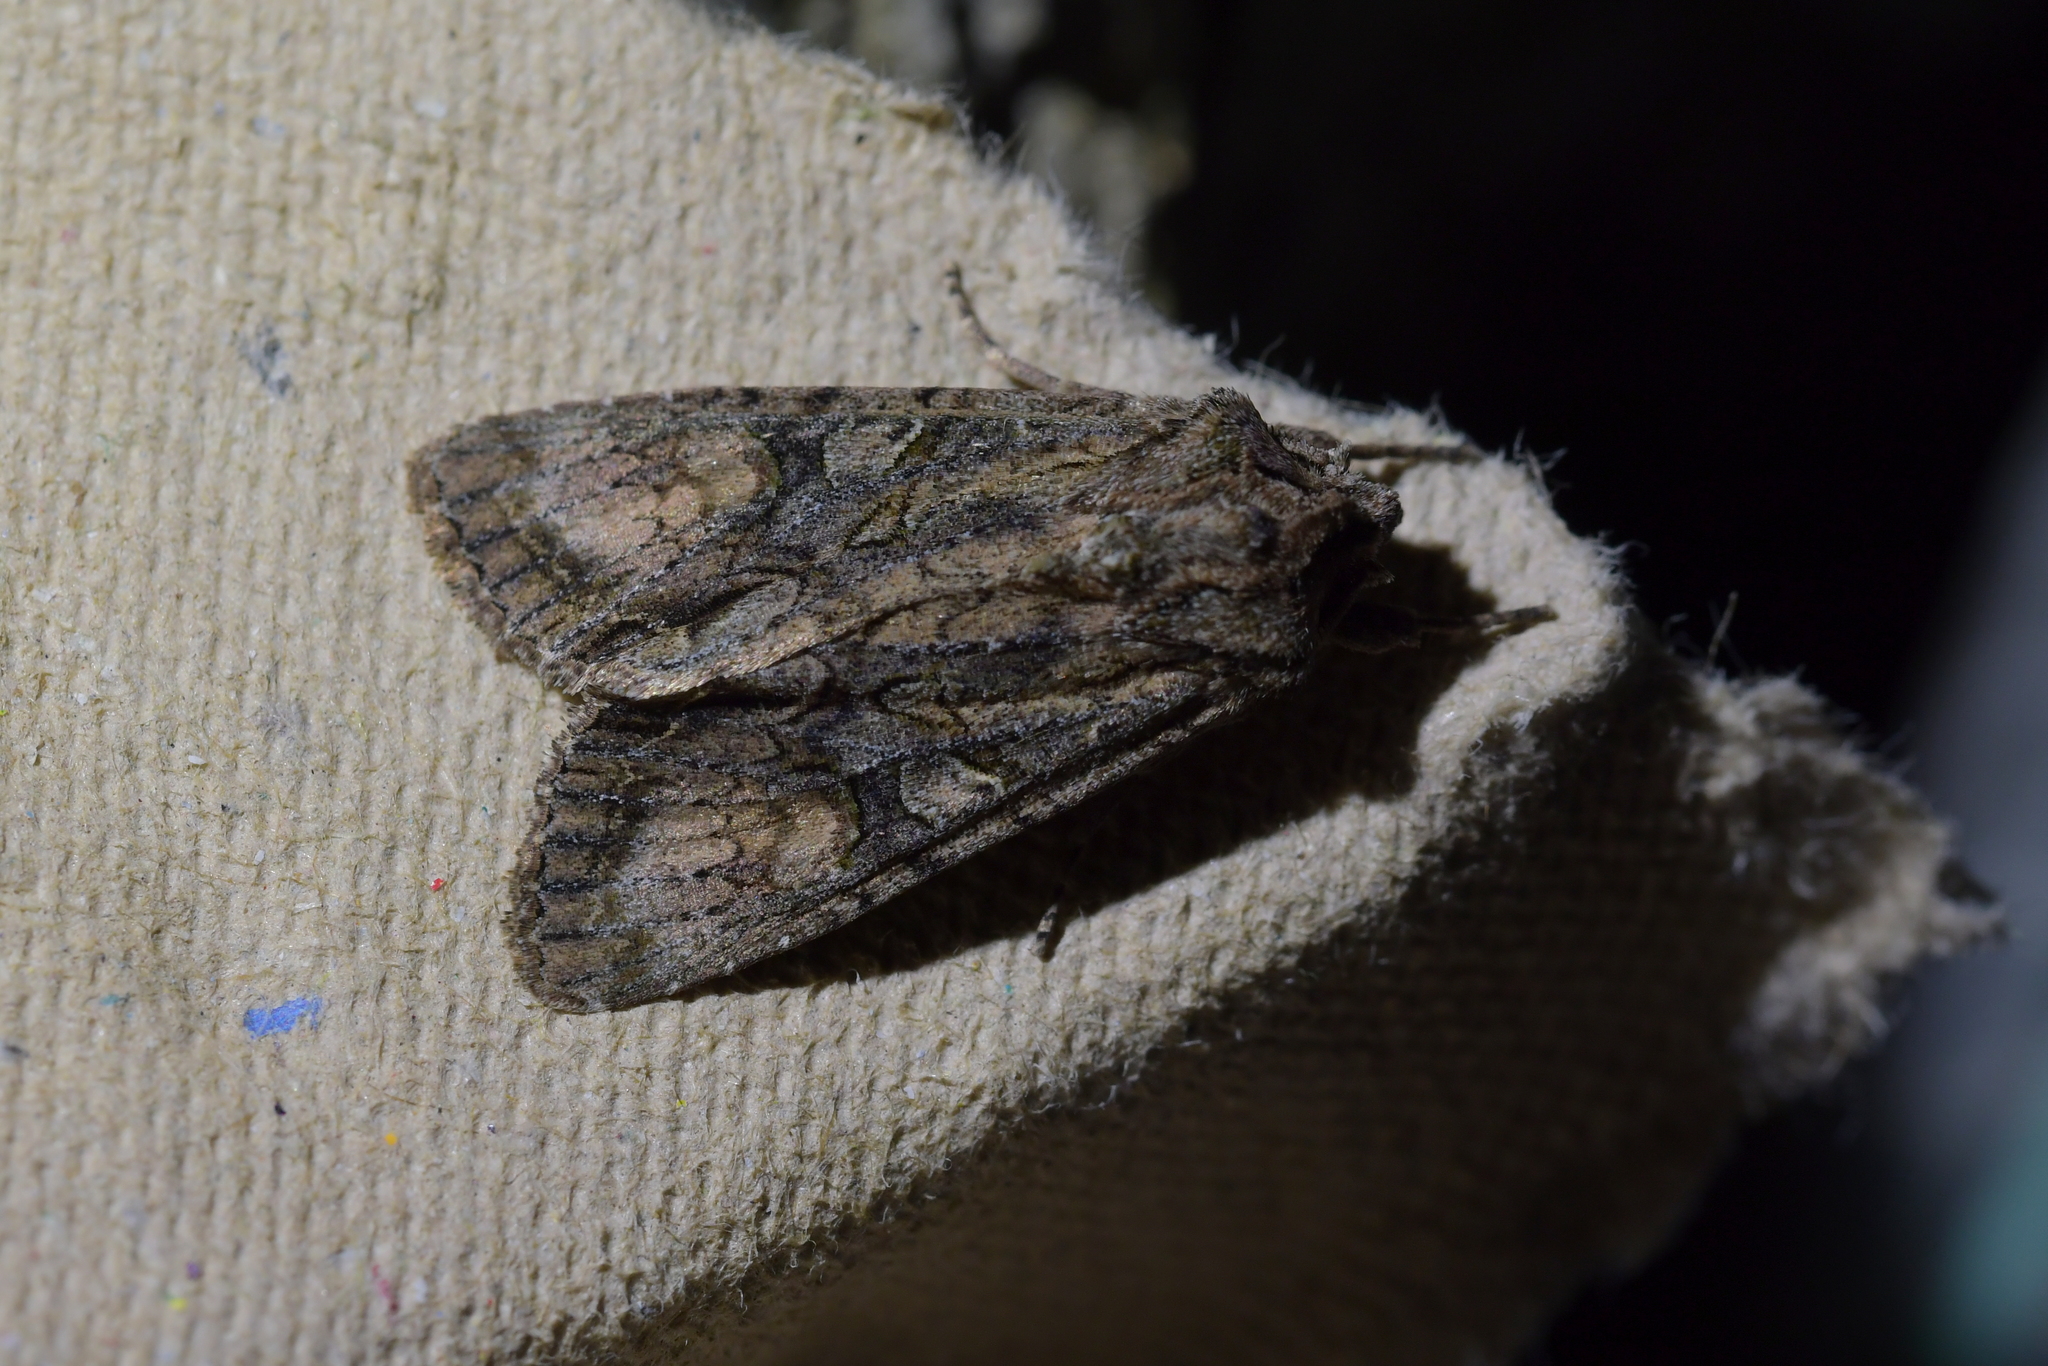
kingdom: Animalia
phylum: Arthropoda
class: Insecta
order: Lepidoptera
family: Noctuidae
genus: Ichneutica
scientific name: Ichneutica mutans
